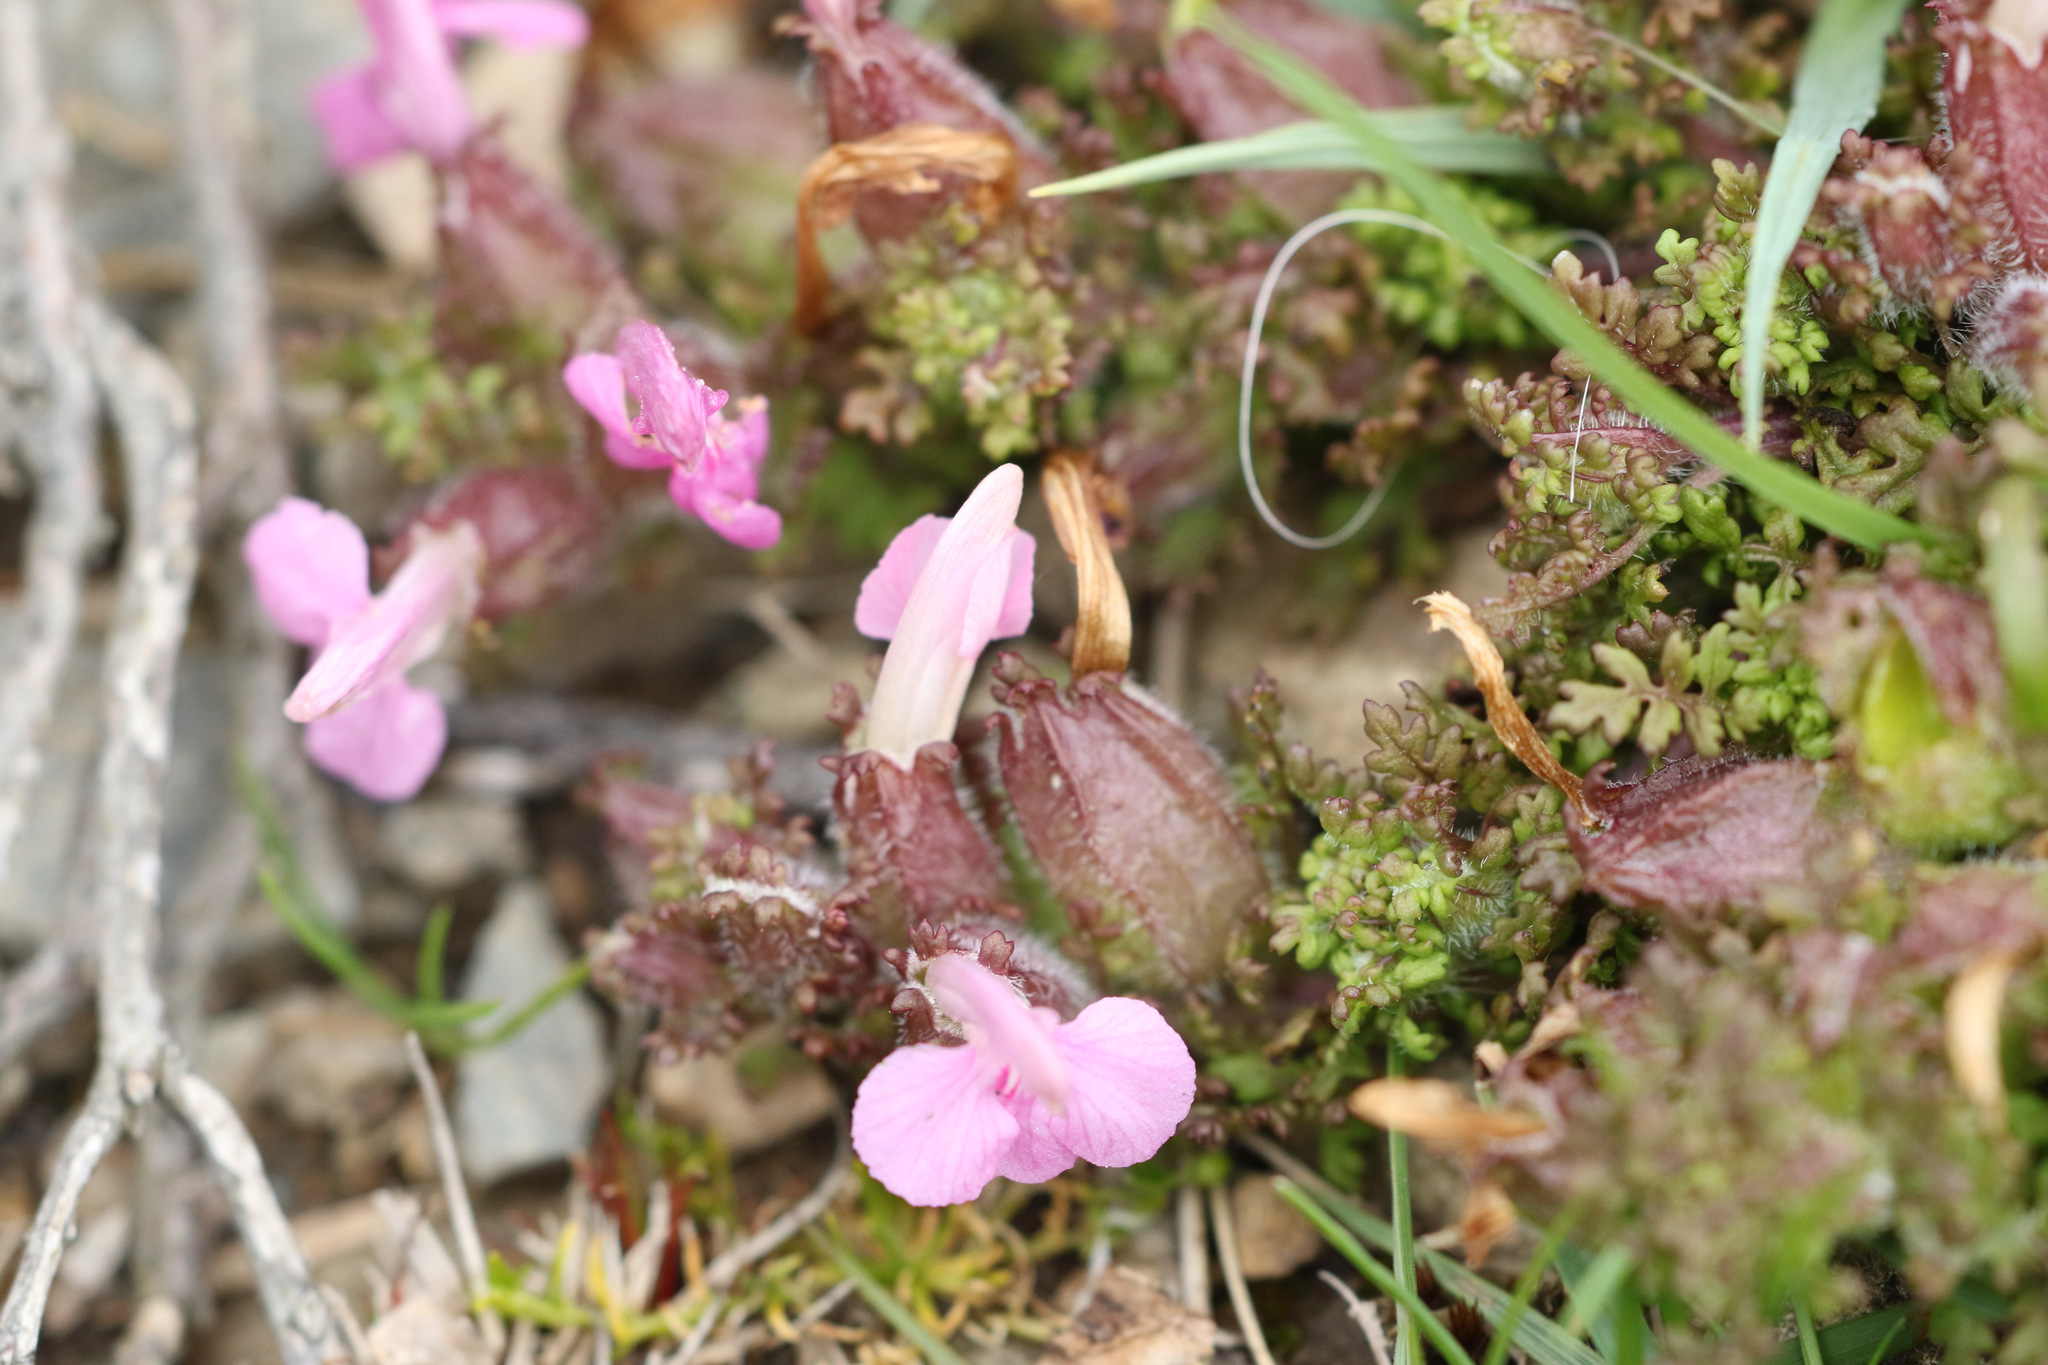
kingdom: Plantae
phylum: Tracheophyta
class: Magnoliopsida
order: Lamiales
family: Orobanchaceae
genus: Pedicularis
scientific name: Pedicularis sylvatica
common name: Lousewort
